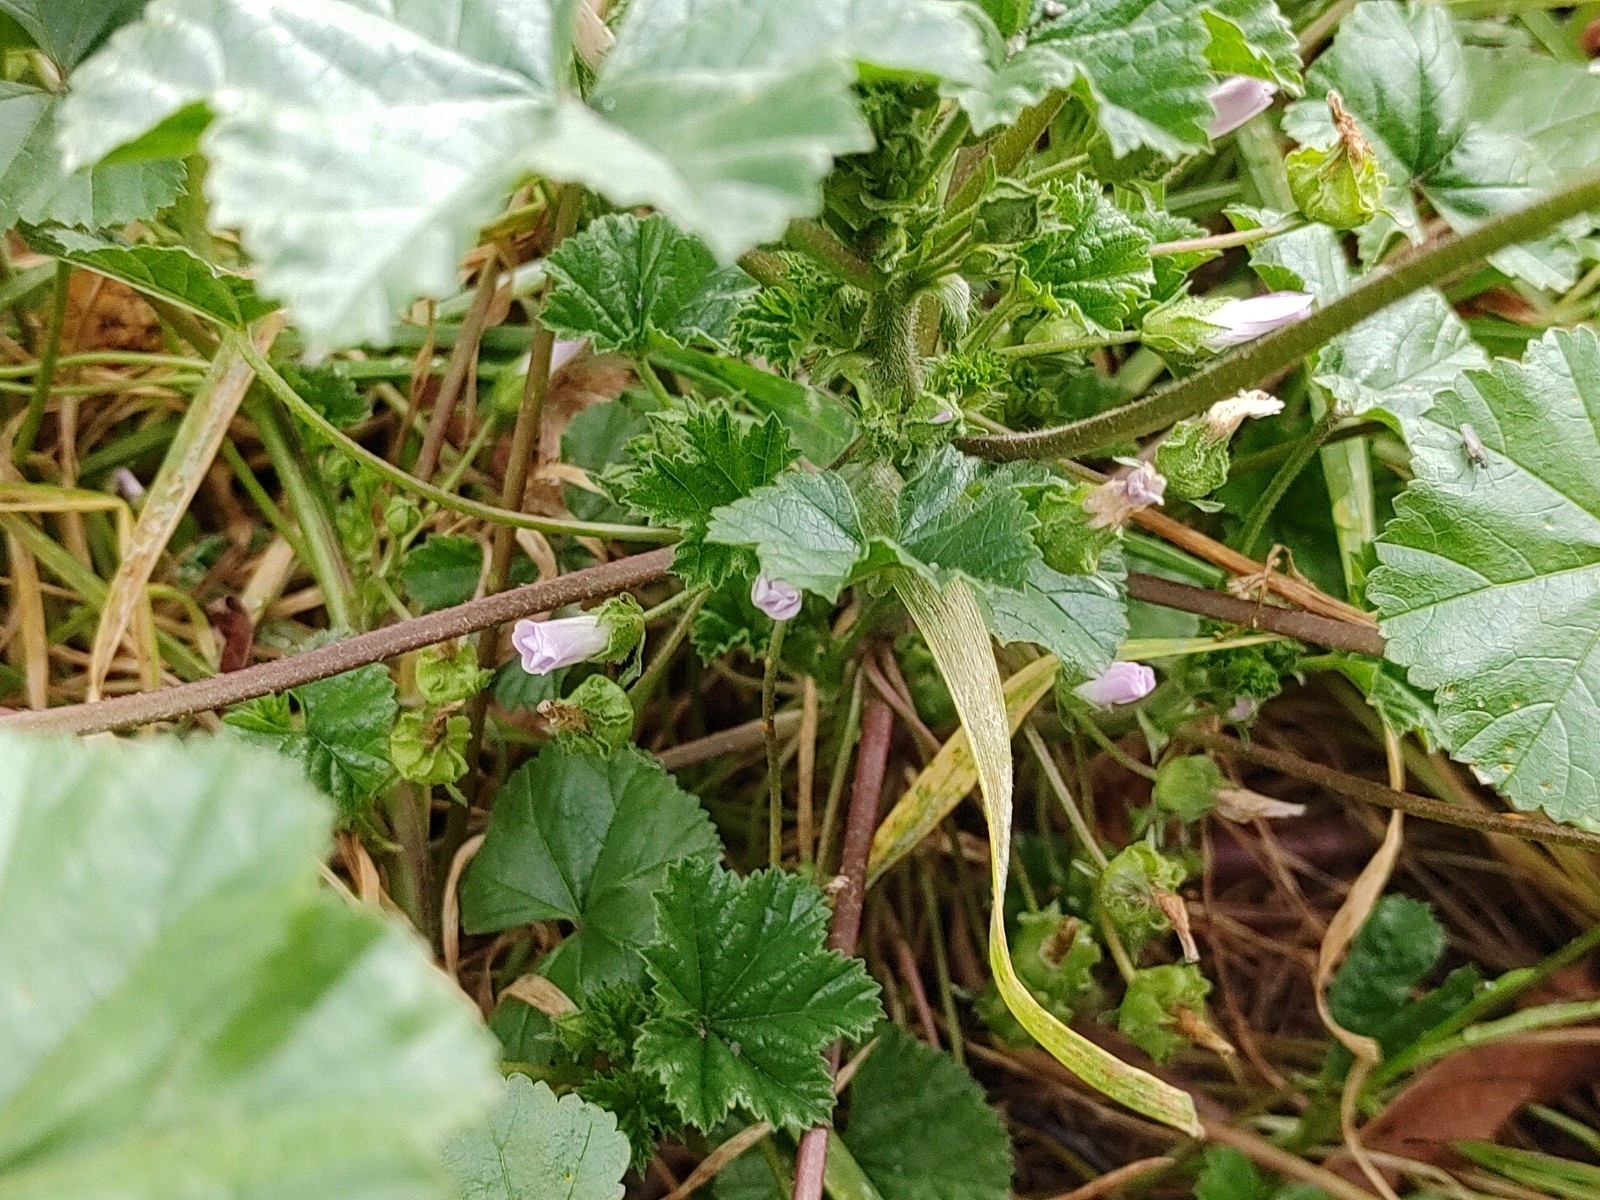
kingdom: Plantae
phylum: Tracheophyta
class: Magnoliopsida
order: Malvales
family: Malvaceae
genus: Malva
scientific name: Malva neglecta
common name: Common mallow
